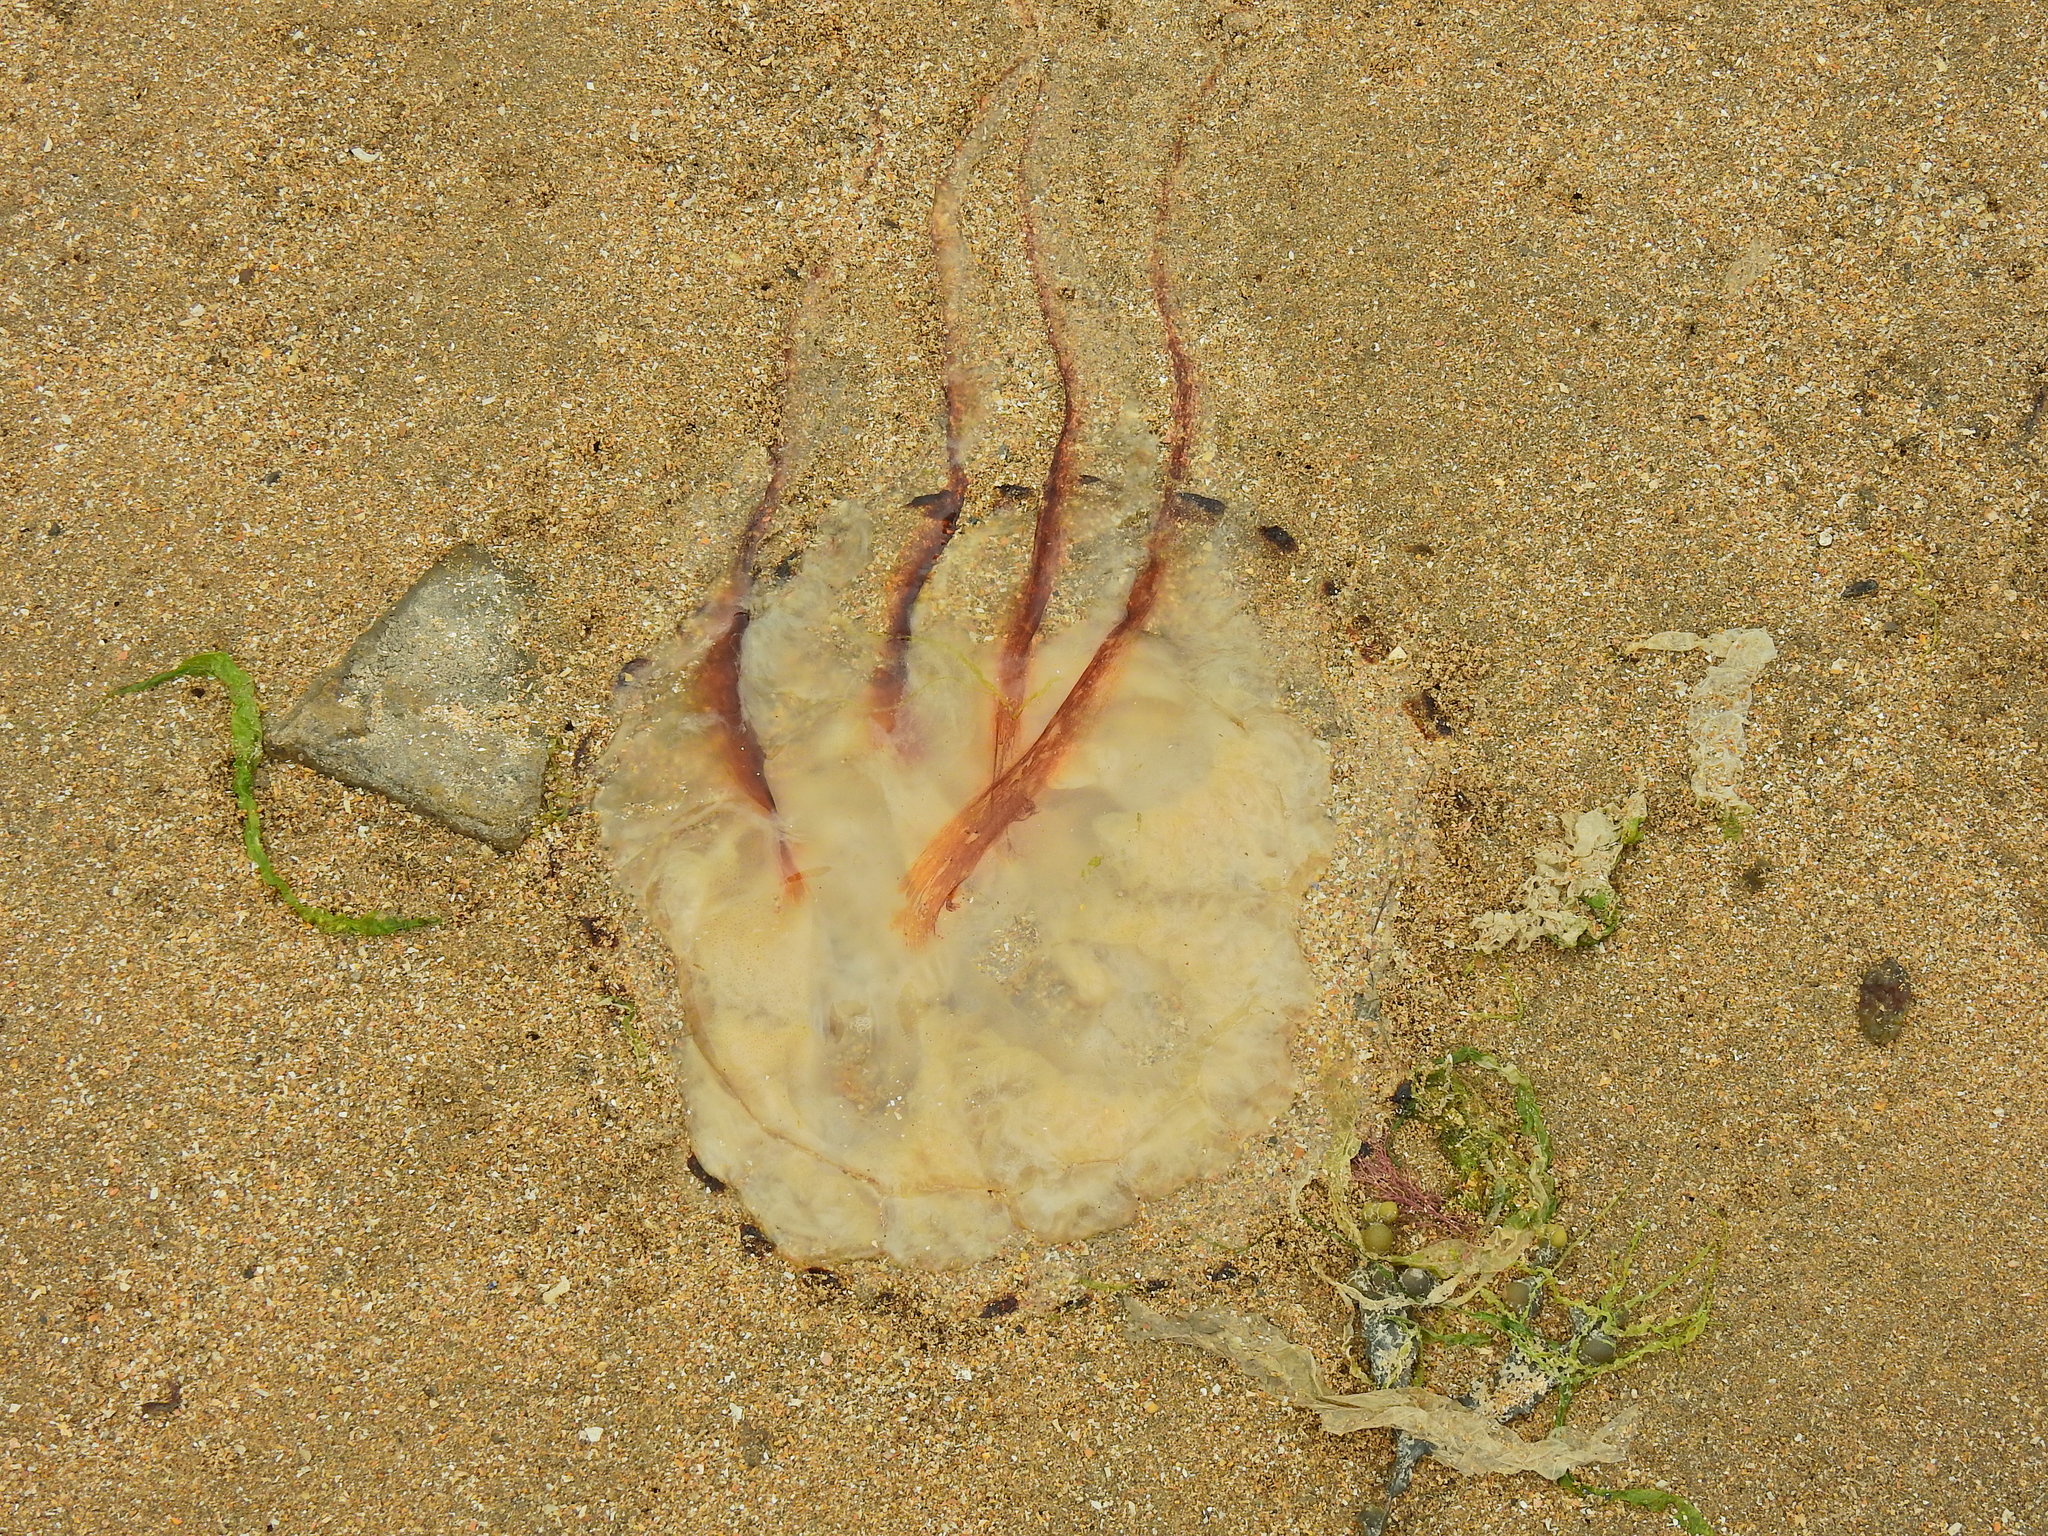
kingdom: Animalia
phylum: Cnidaria
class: Scyphozoa
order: Semaeostomeae
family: Pelagiidae
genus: Chrysaora
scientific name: Chrysaora hysoscella
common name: Compass jellyfish
